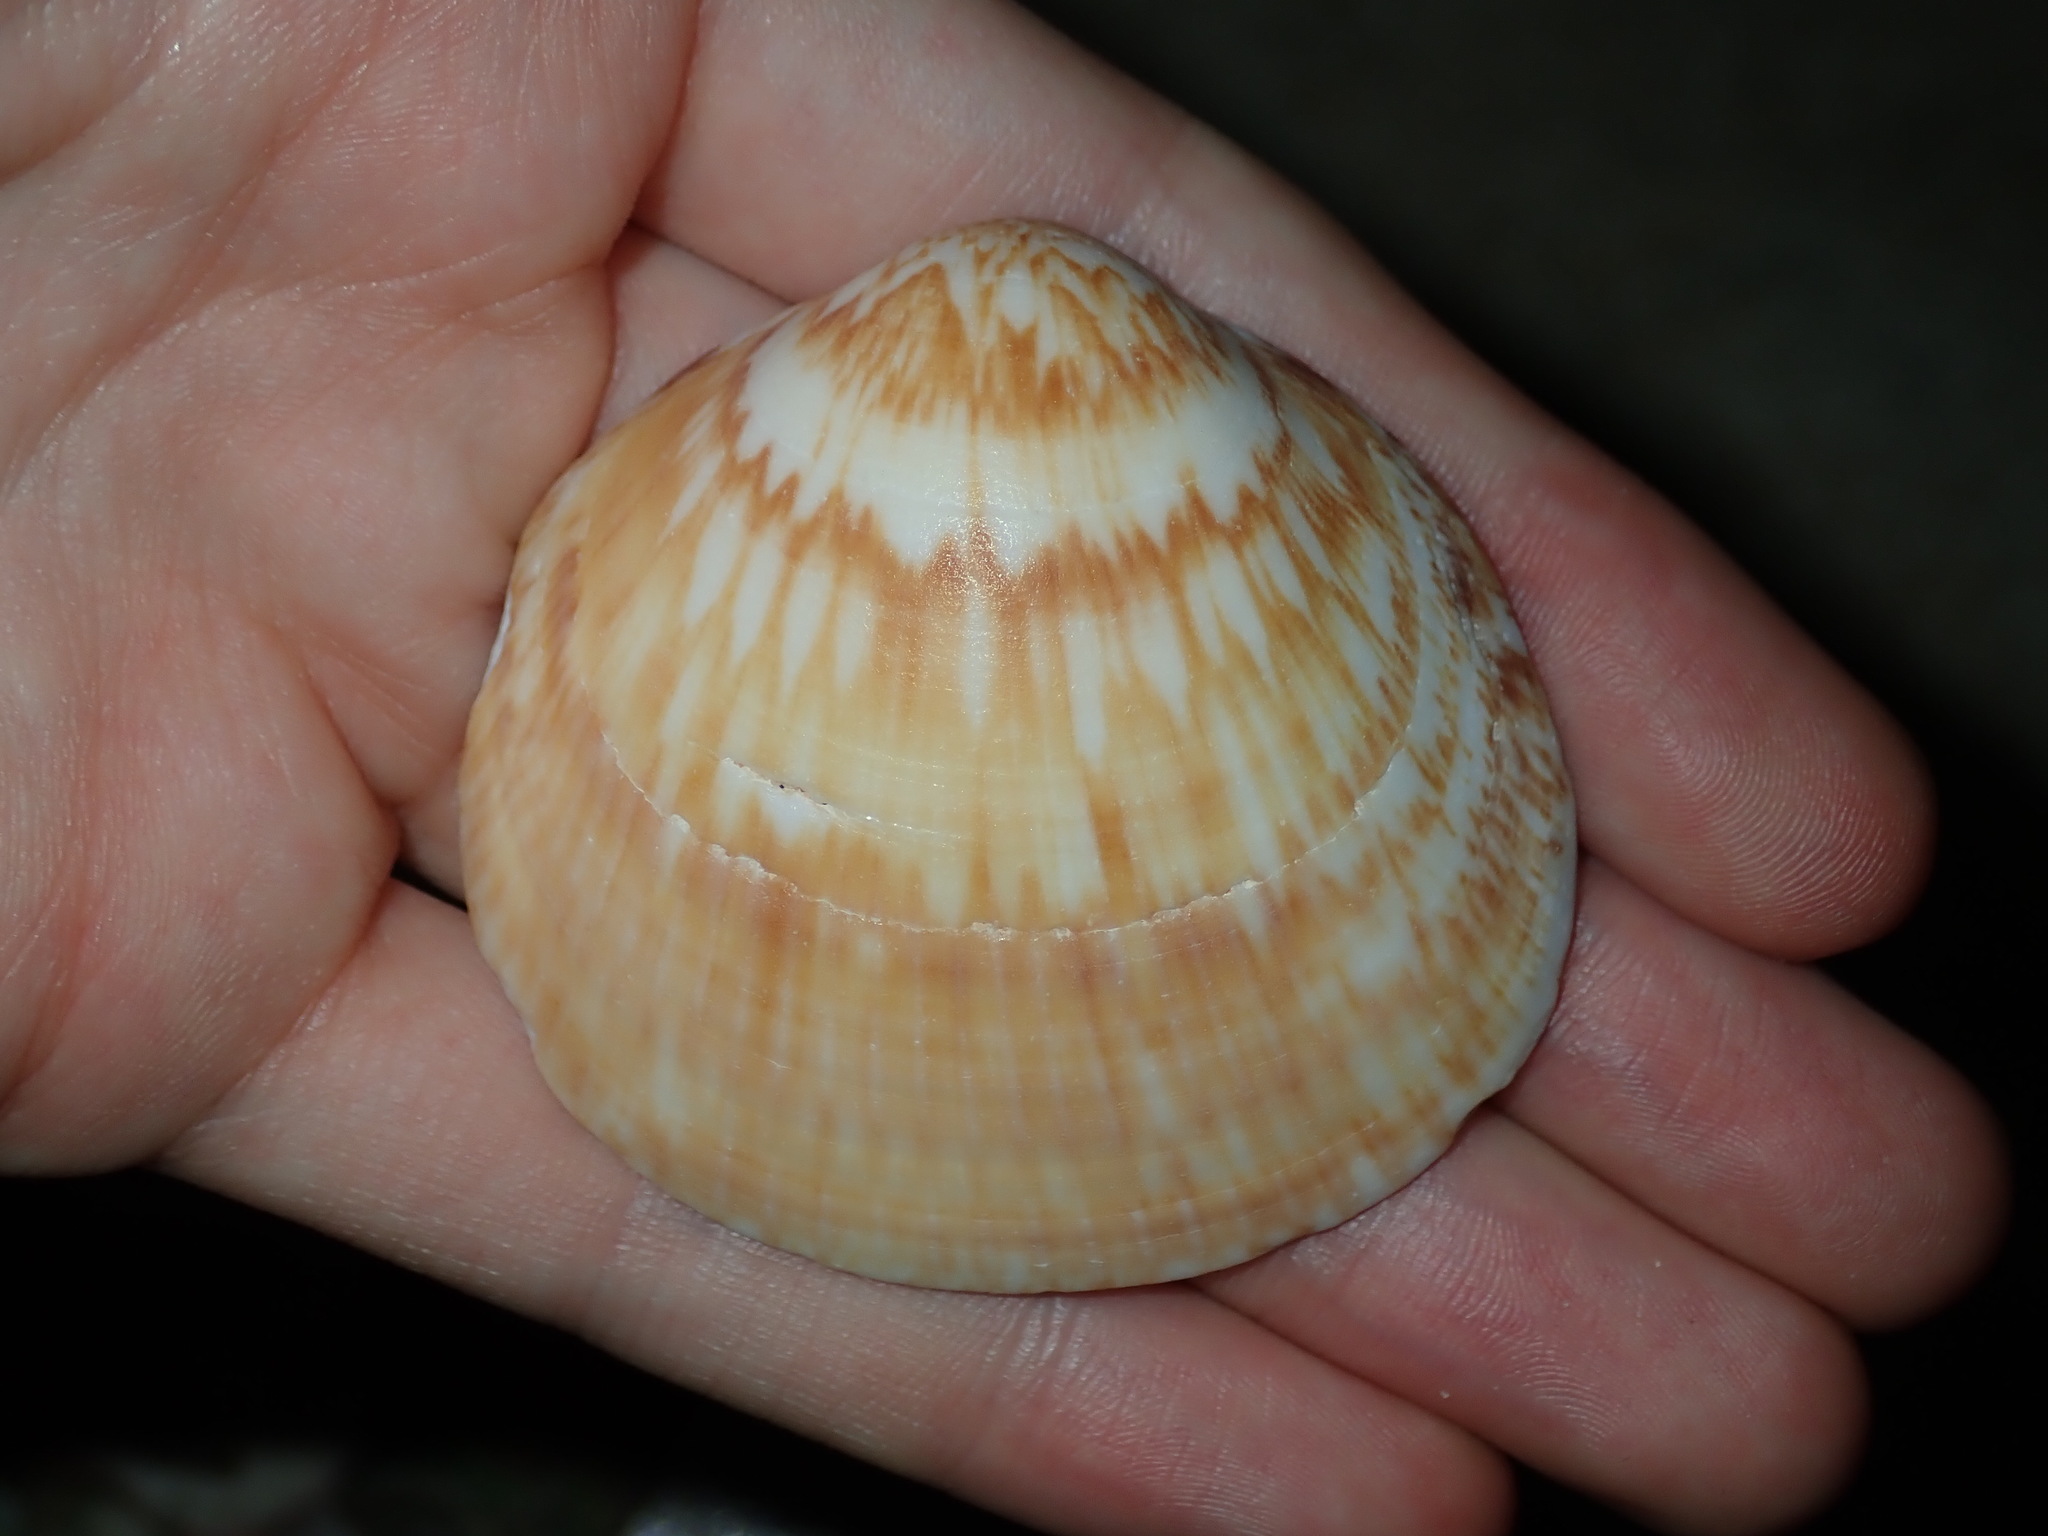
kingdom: Animalia
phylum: Mollusca
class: Bivalvia
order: Arcida
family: Glycymerididae
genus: Glycymeris
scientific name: Glycymeris grayana
